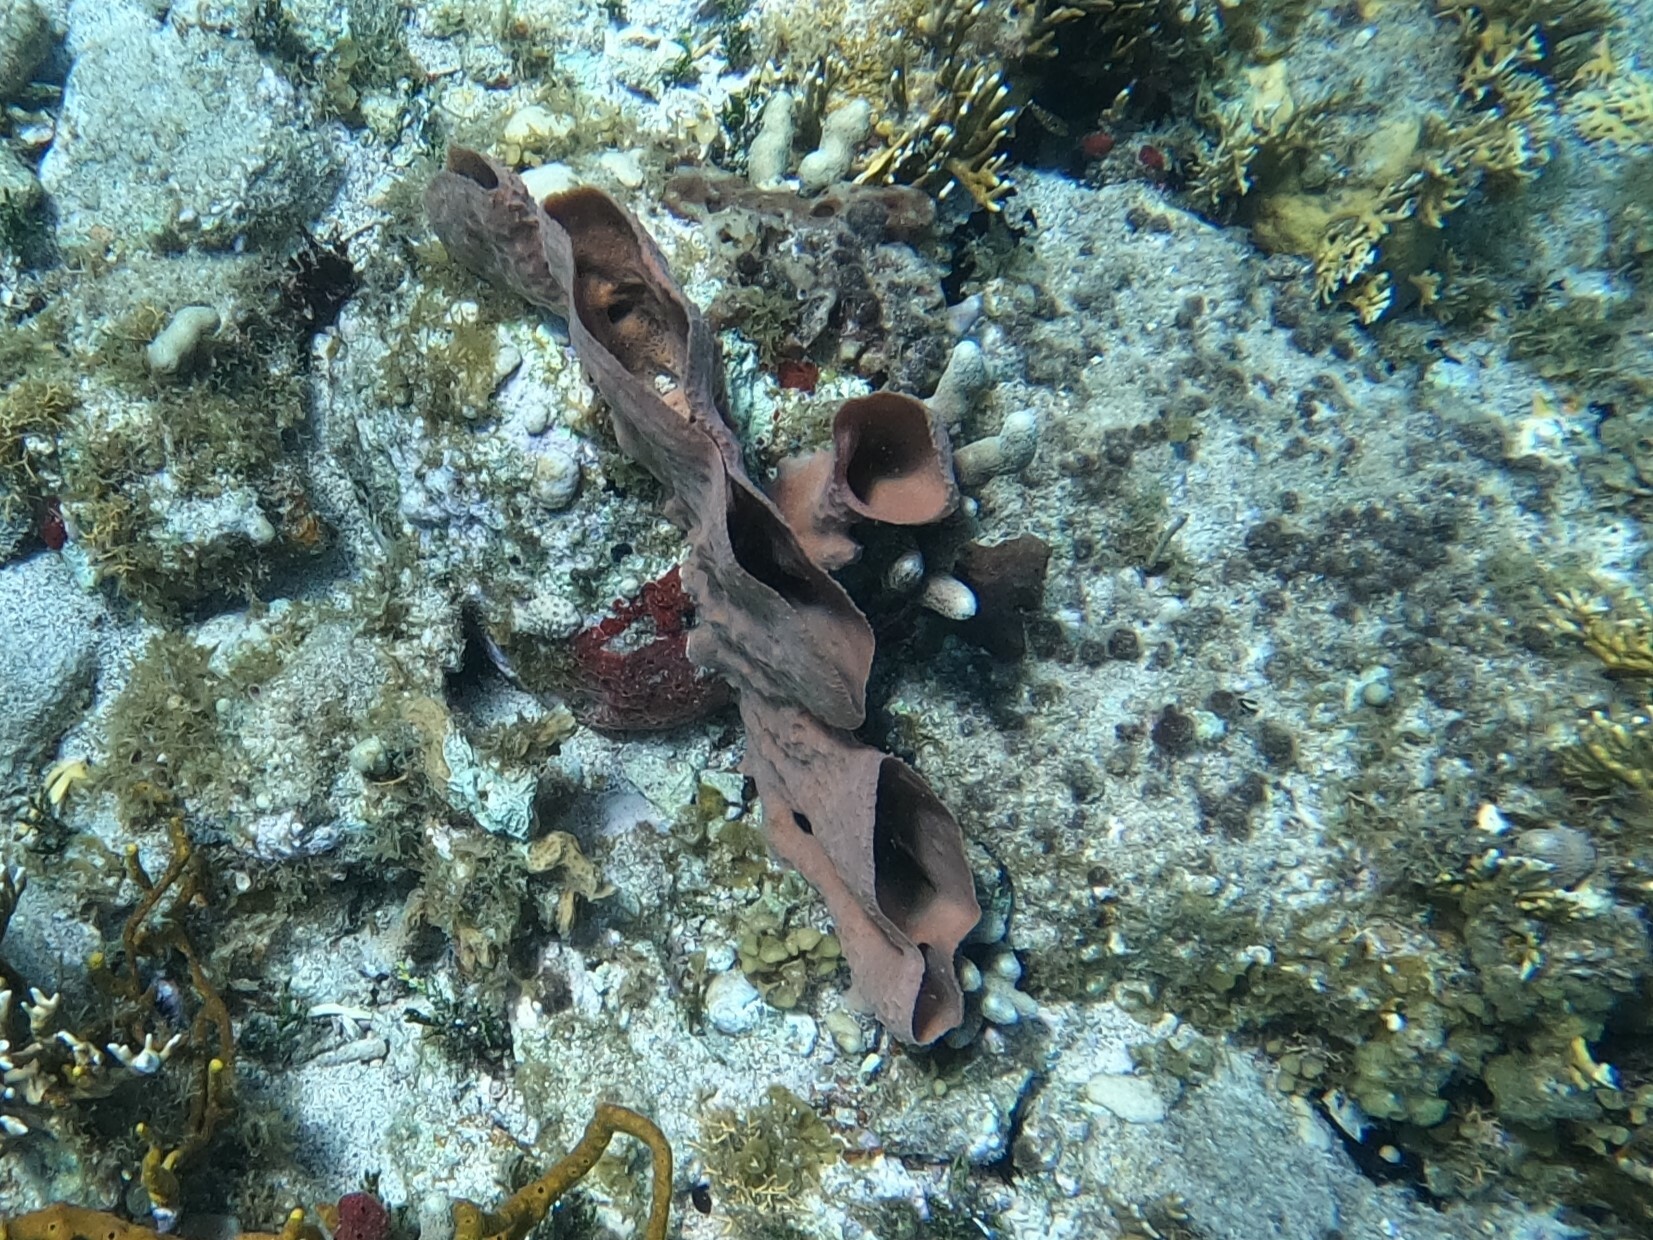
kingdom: Animalia
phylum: Porifera
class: Demospongiae
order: Haplosclerida
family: Callyspongiidae
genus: Callyspongia
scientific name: Callyspongia aculeata
